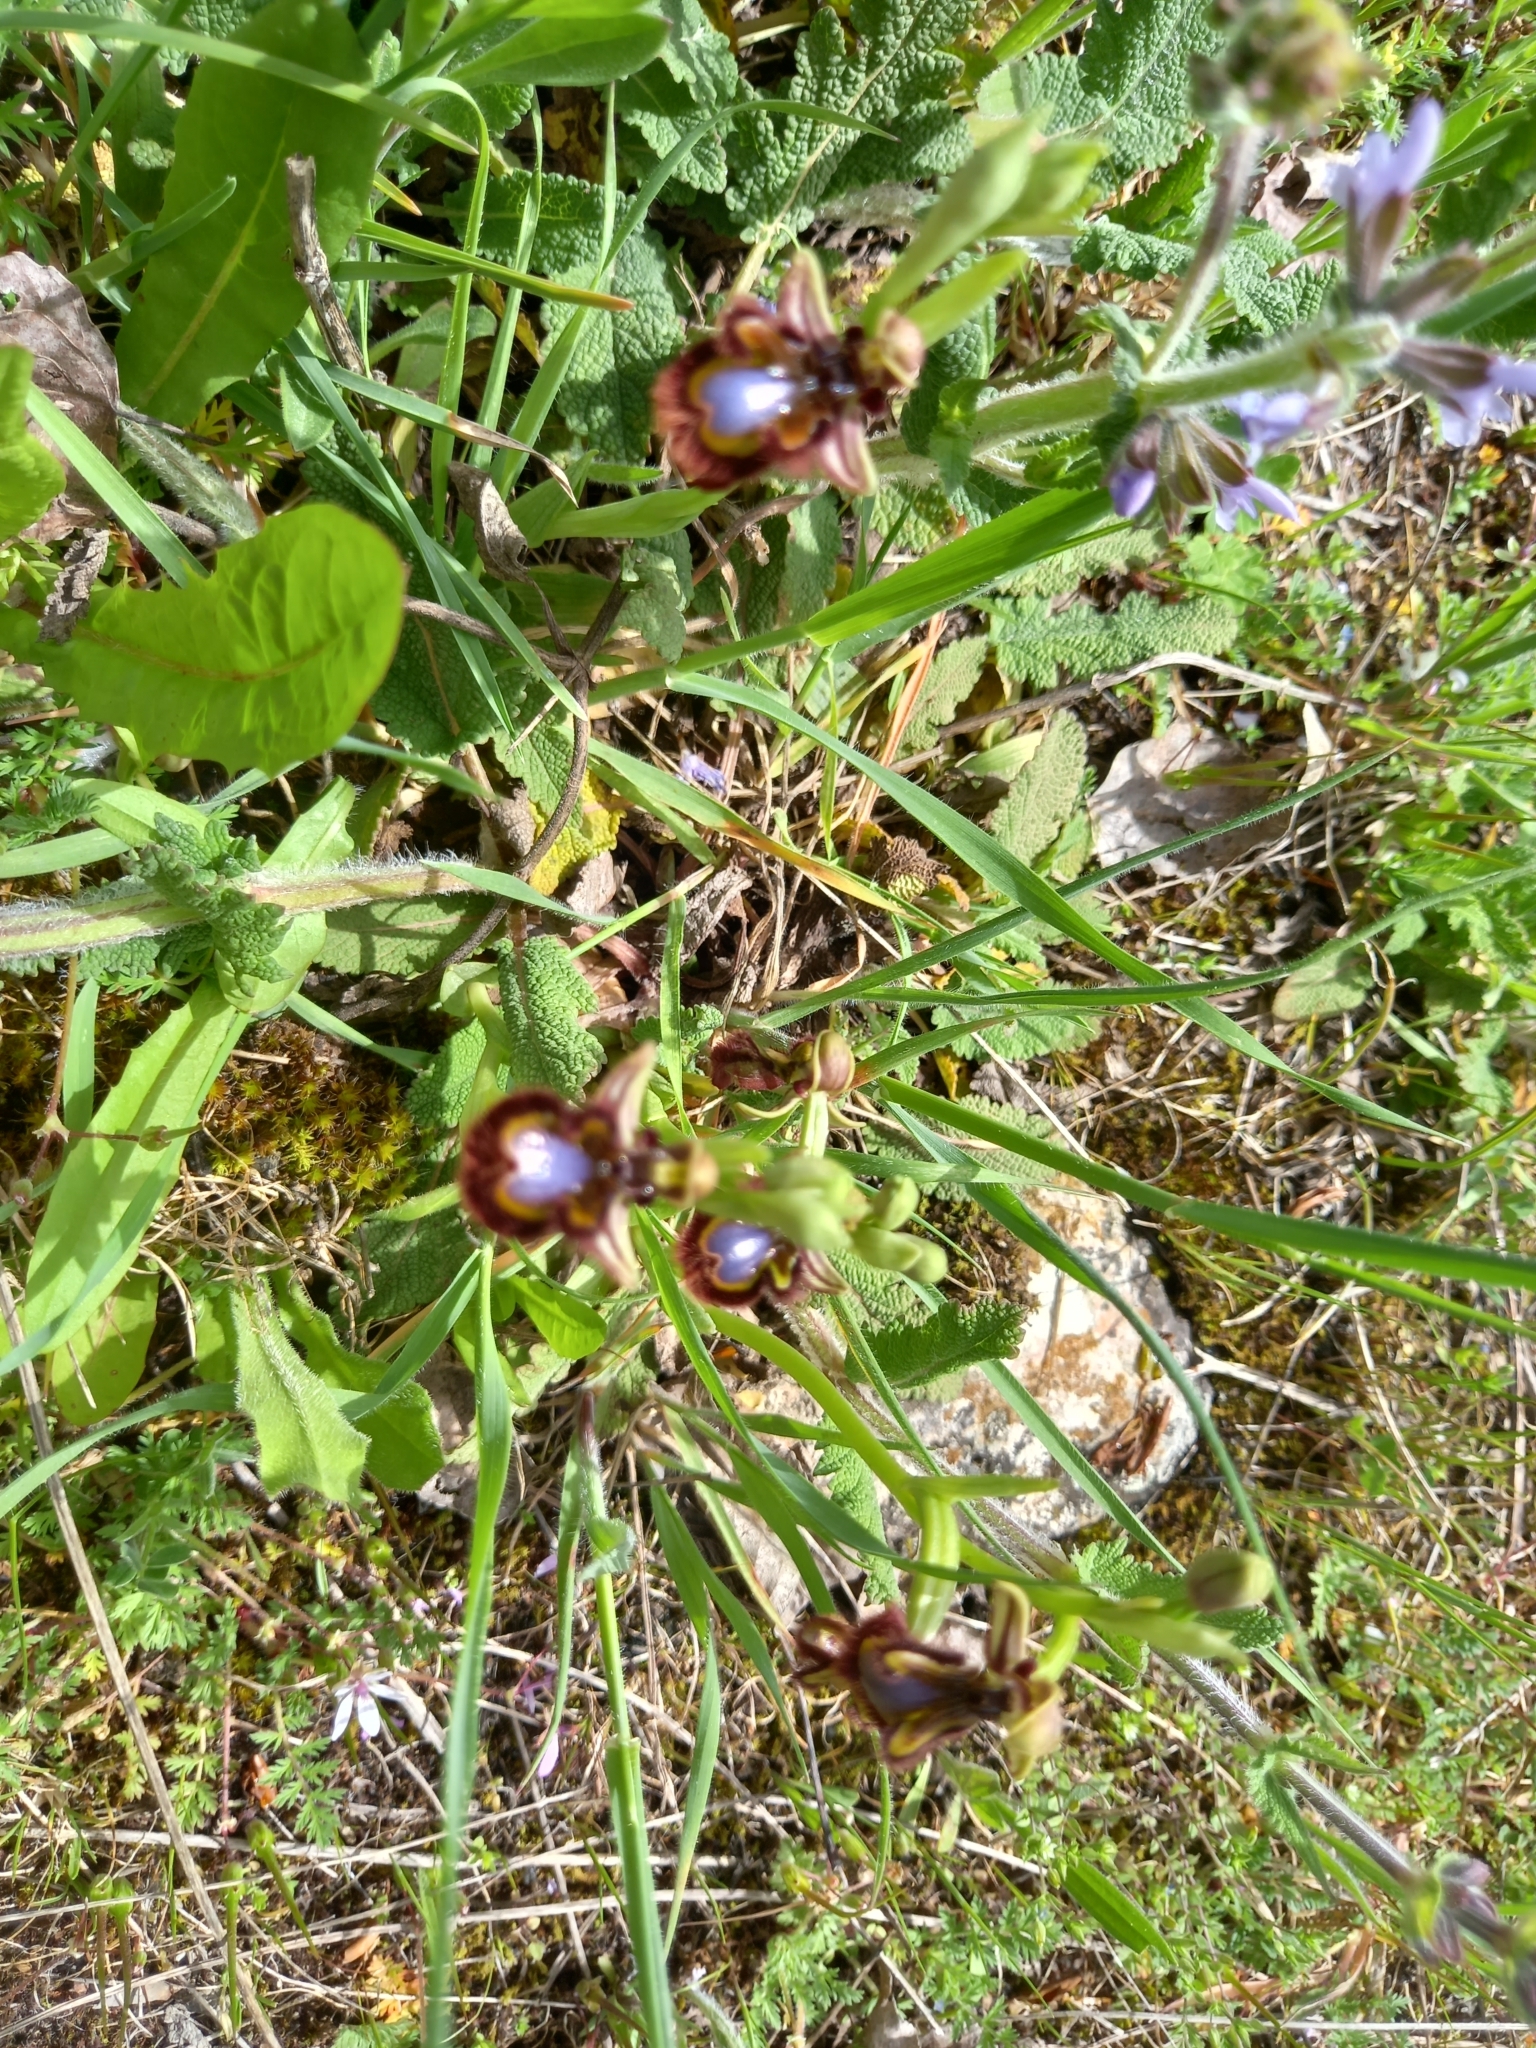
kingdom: Plantae
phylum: Tracheophyta
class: Liliopsida
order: Asparagales
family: Orchidaceae
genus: Ophrys
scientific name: Ophrys speculum
